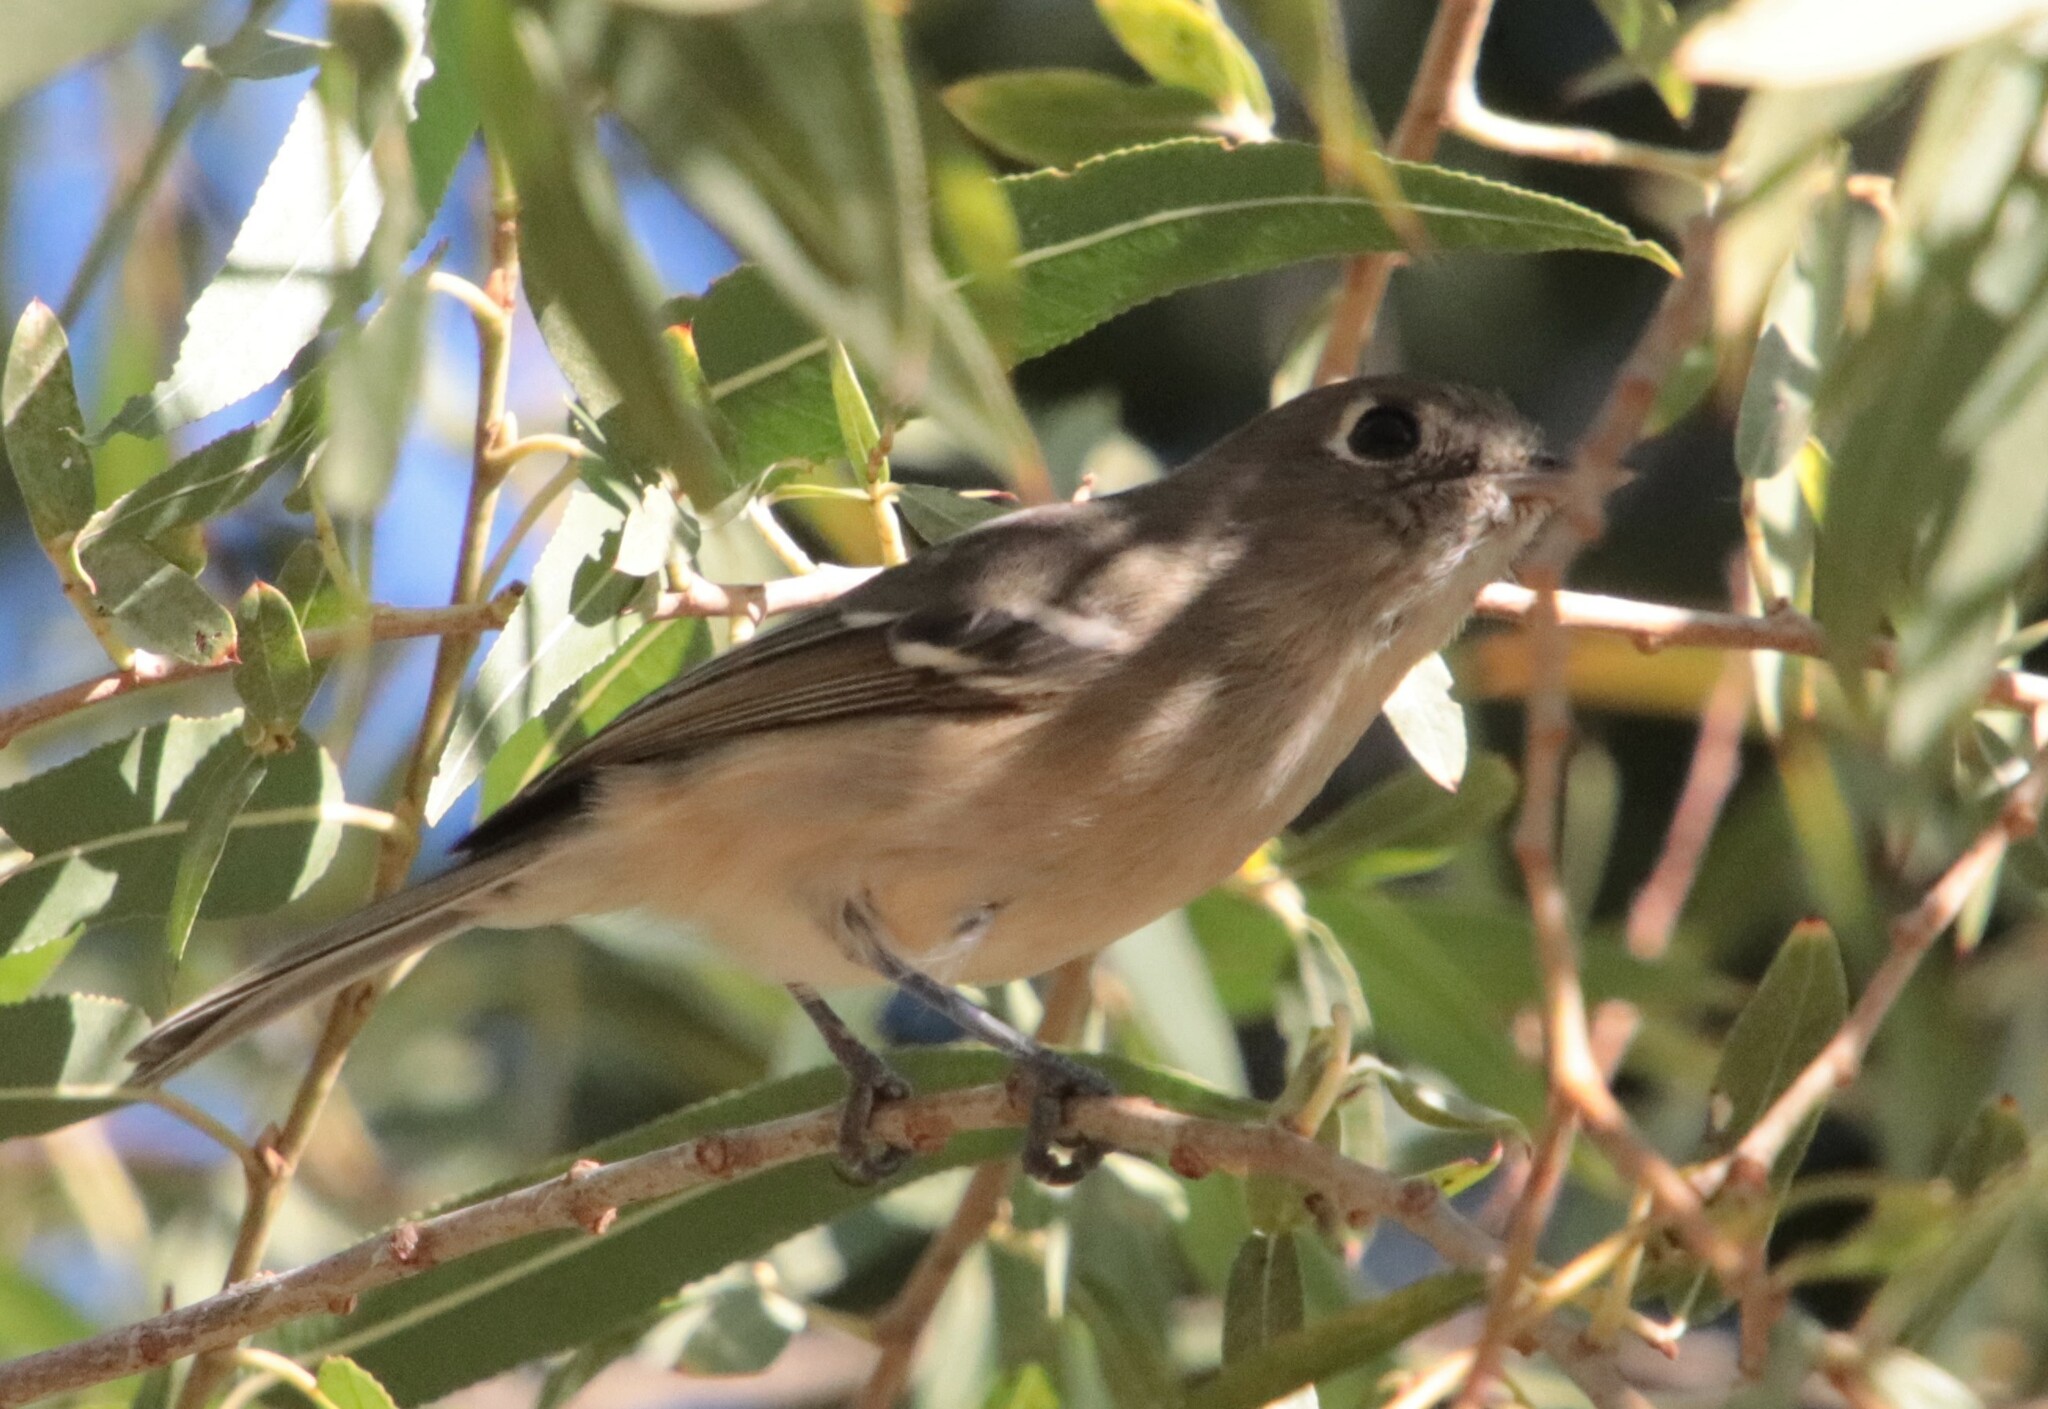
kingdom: Animalia
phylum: Chordata
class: Aves
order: Passeriformes
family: Vireonidae
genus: Vireo
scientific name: Vireo huttoni
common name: Hutton's vireo
